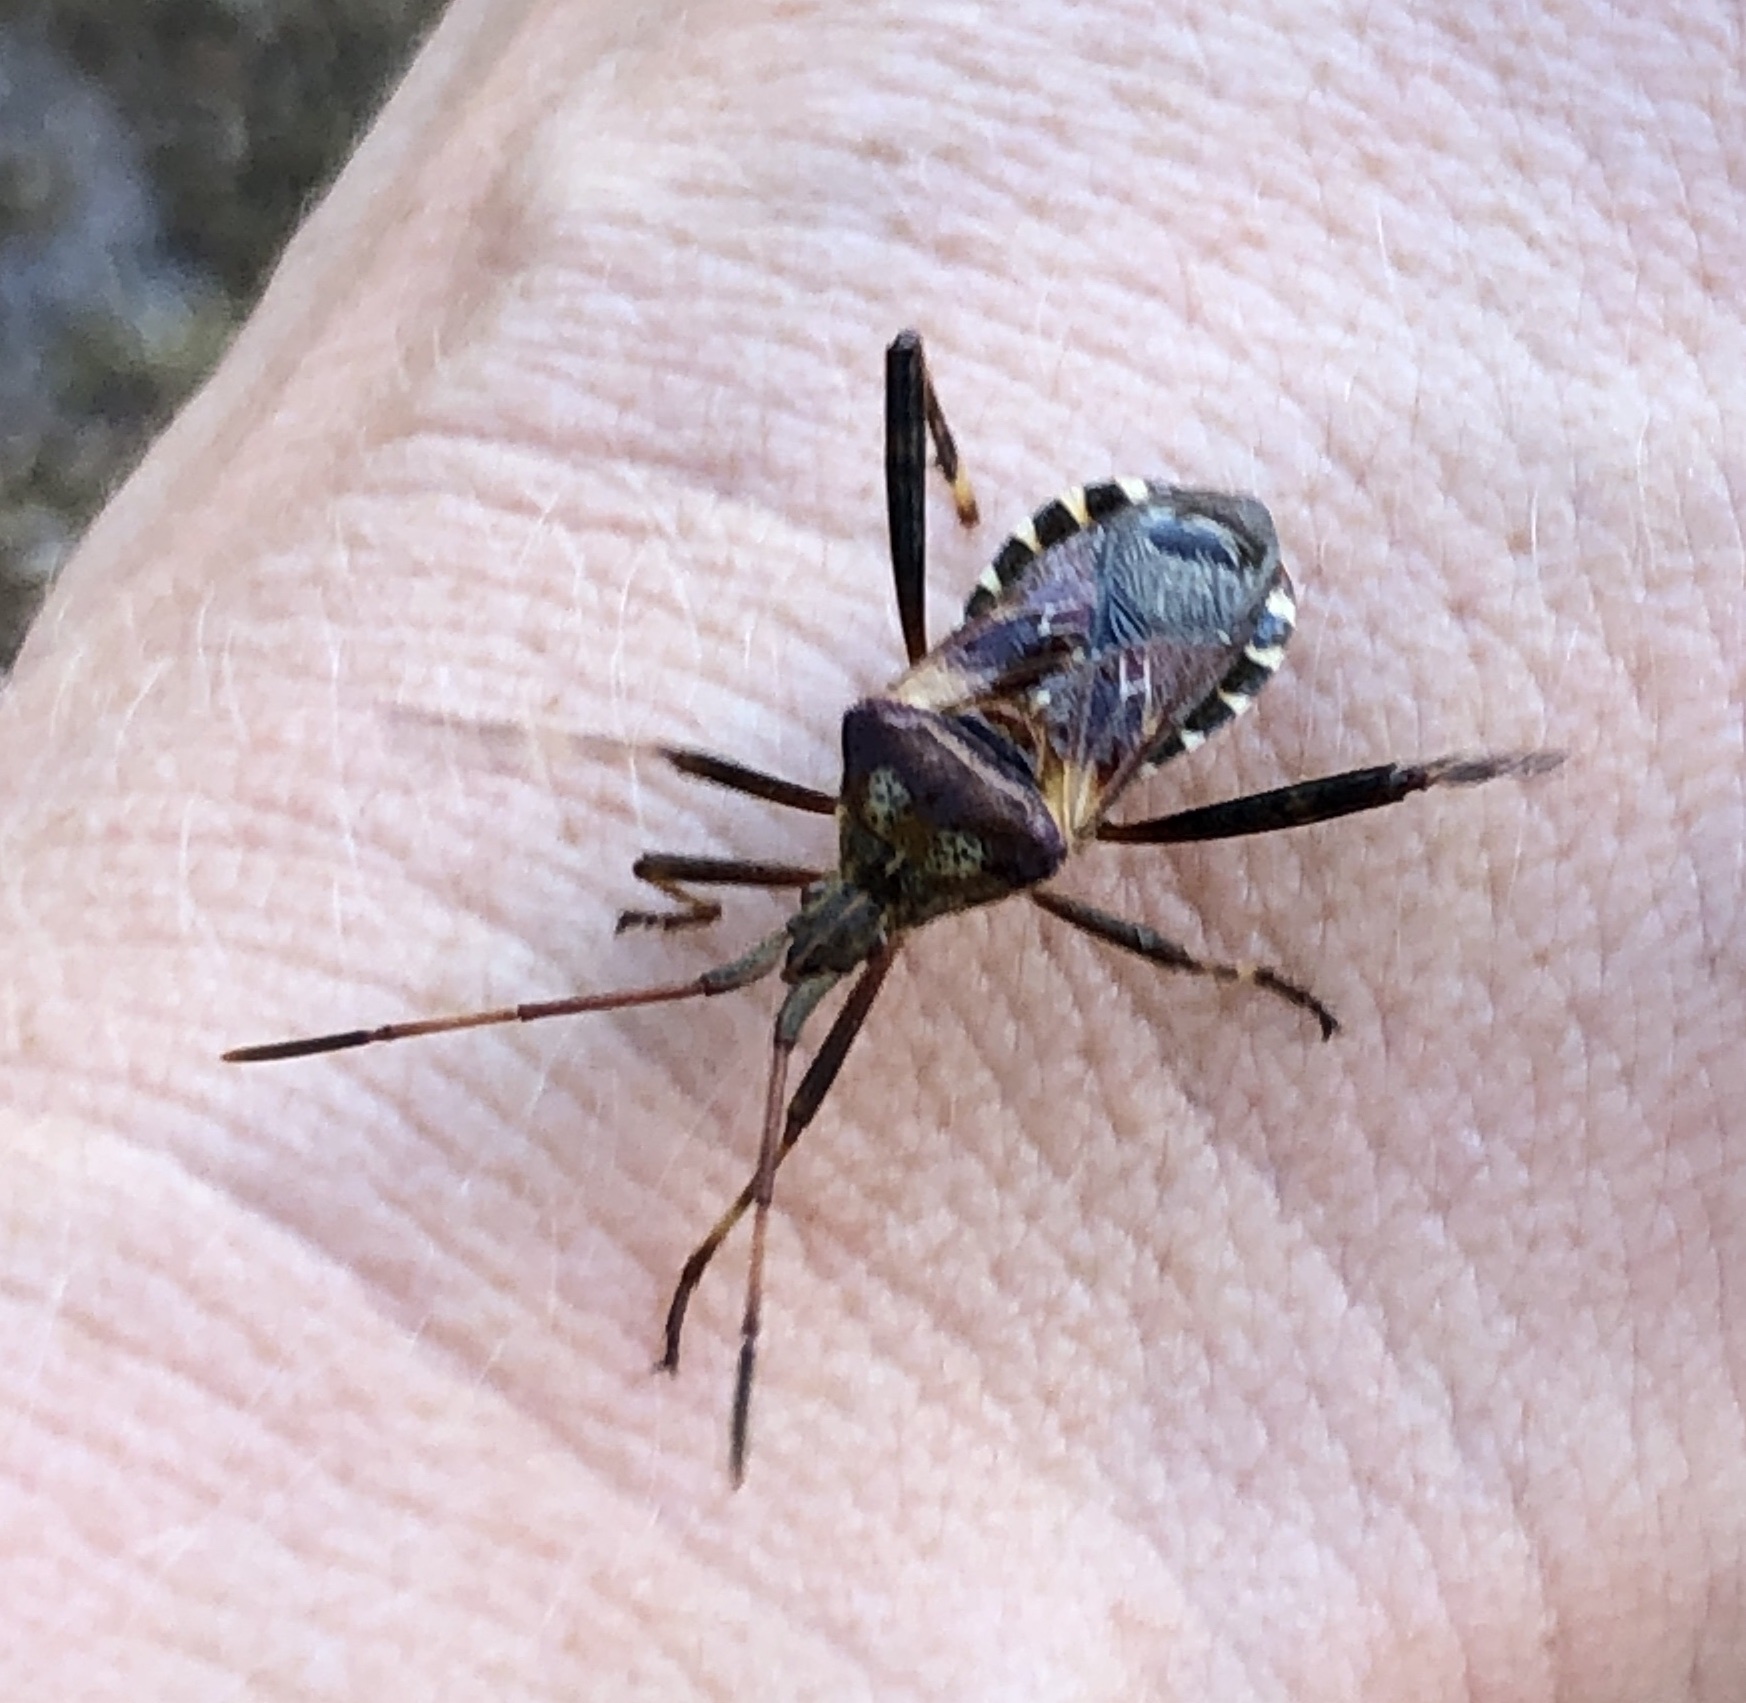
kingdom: Animalia
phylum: Arthropoda
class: Insecta
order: Hemiptera
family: Coreidae
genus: Leptoglossus
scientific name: Leptoglossus occidentalis
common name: Western conifer-seed bug
